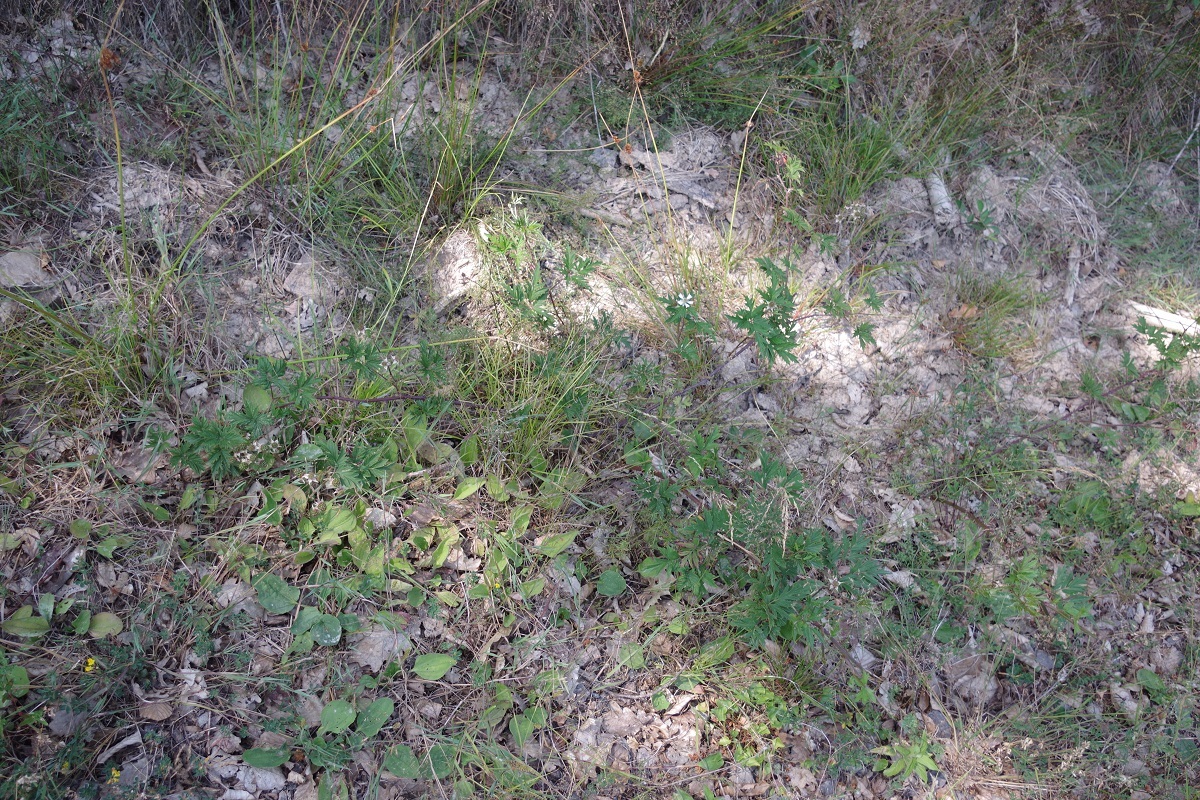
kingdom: Plantae
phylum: Tracheophyta
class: Magnoliopsida
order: Rosales
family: Rosaceae
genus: Rubus
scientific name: Rubus laciniatus
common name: Evergreen blackberry
